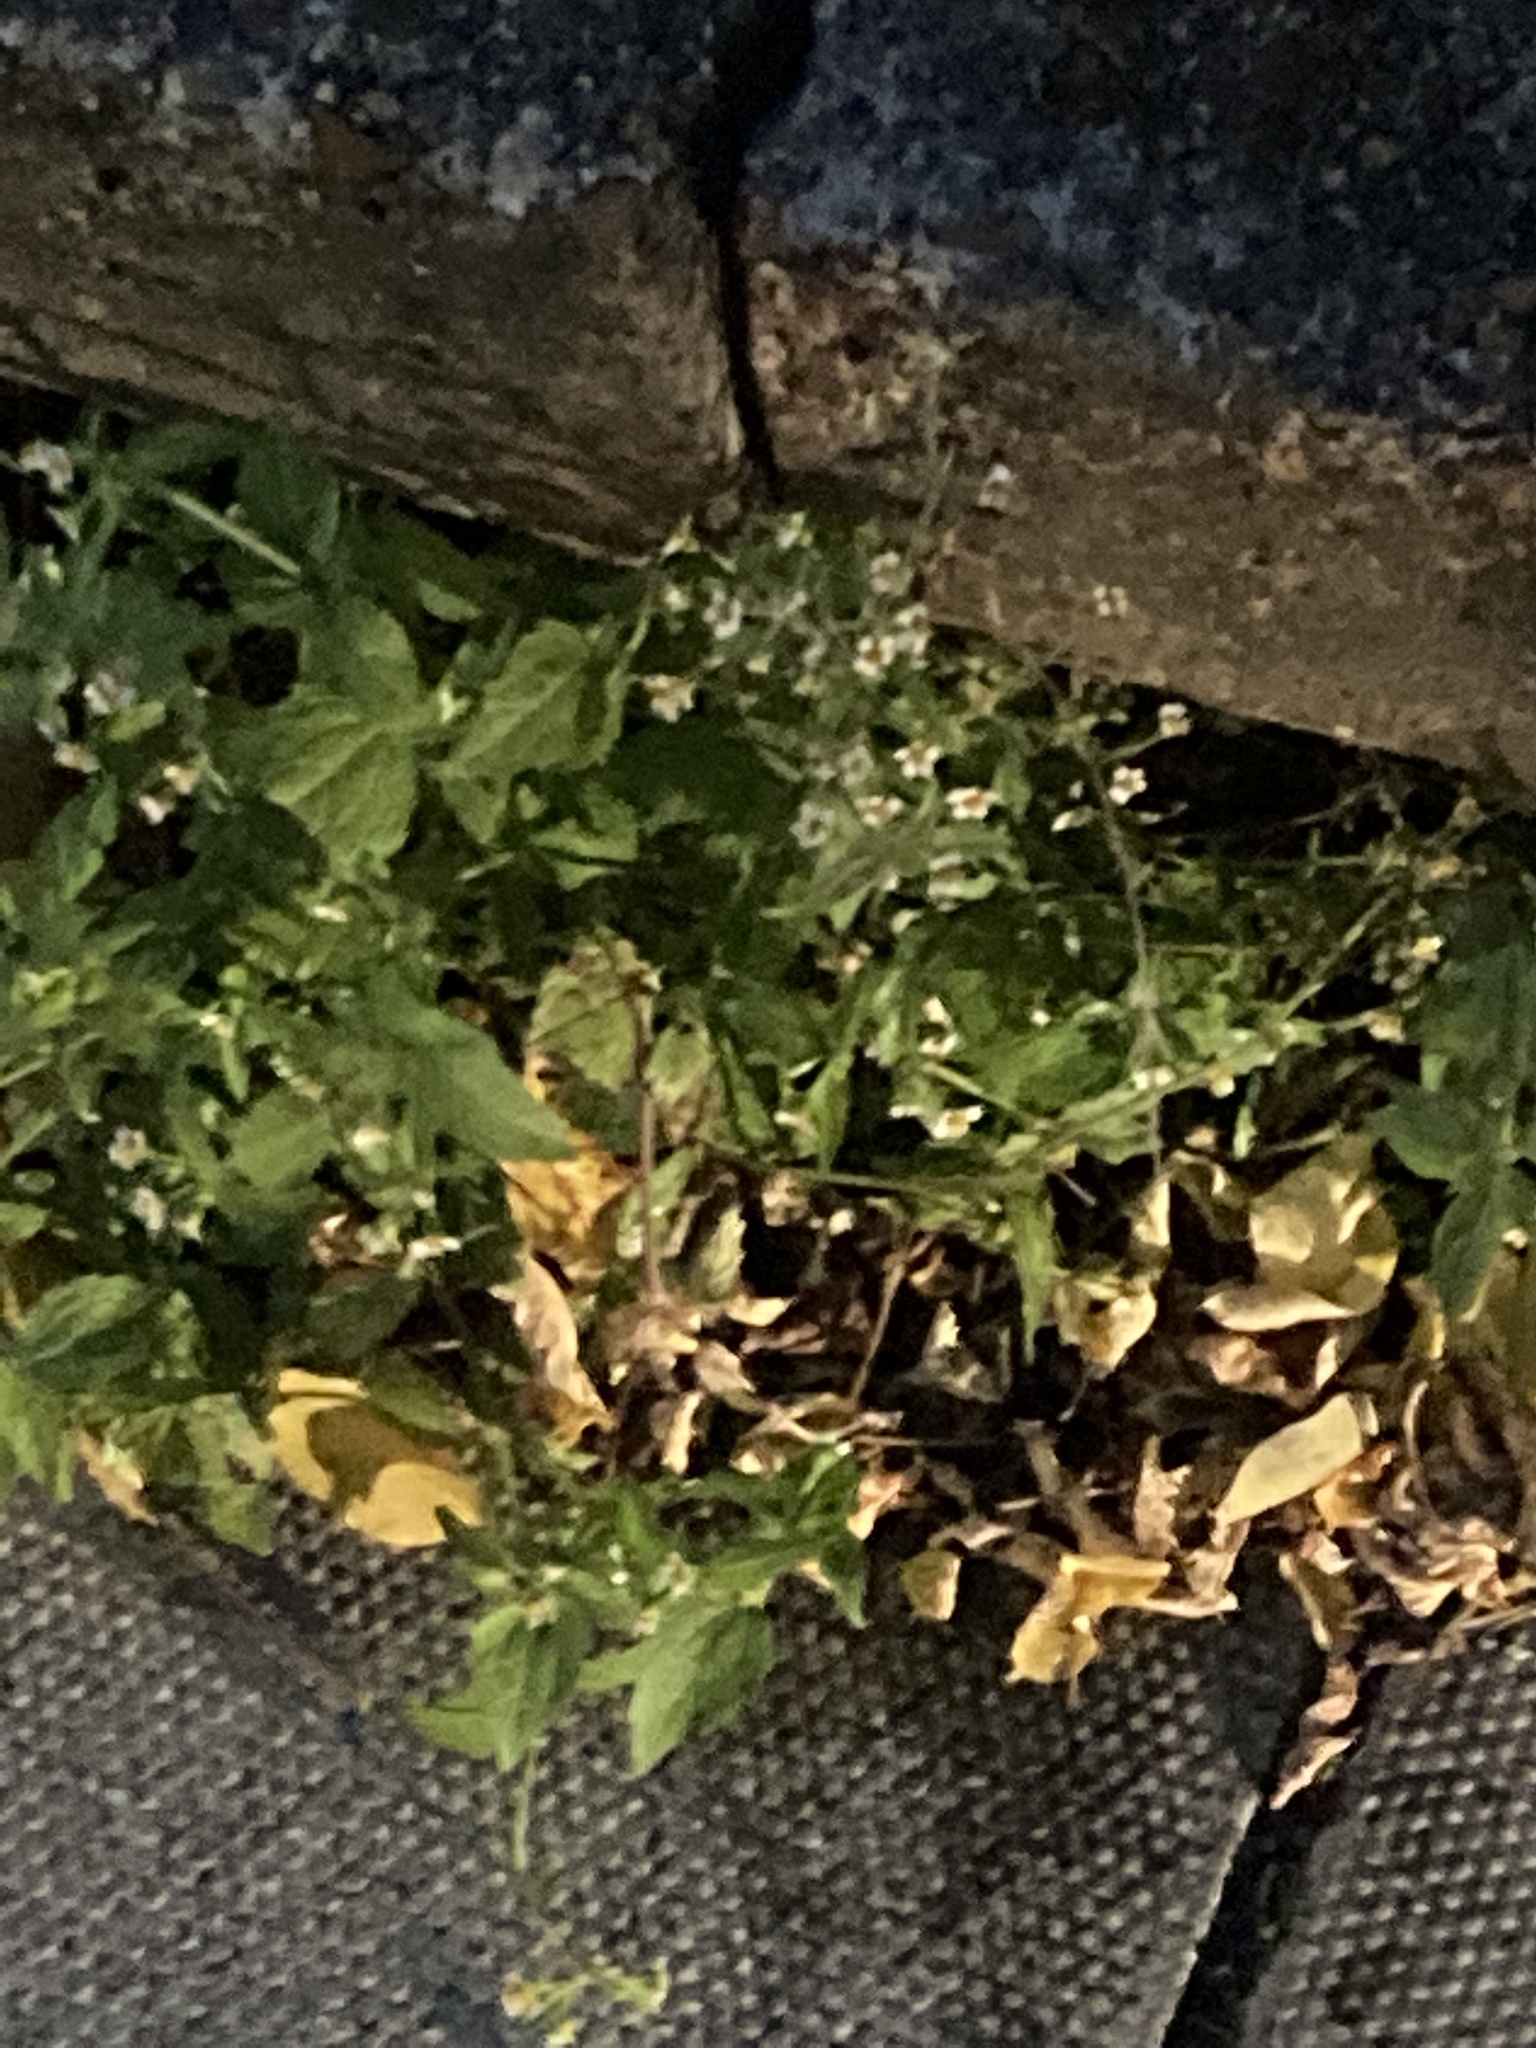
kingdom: Plantae
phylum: Tracheophyta
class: Magnoliopsida
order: Asterales
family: Asteraceae
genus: Galinsoga
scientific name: Galinsoga quadriradiata
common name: Shaggy soldier
